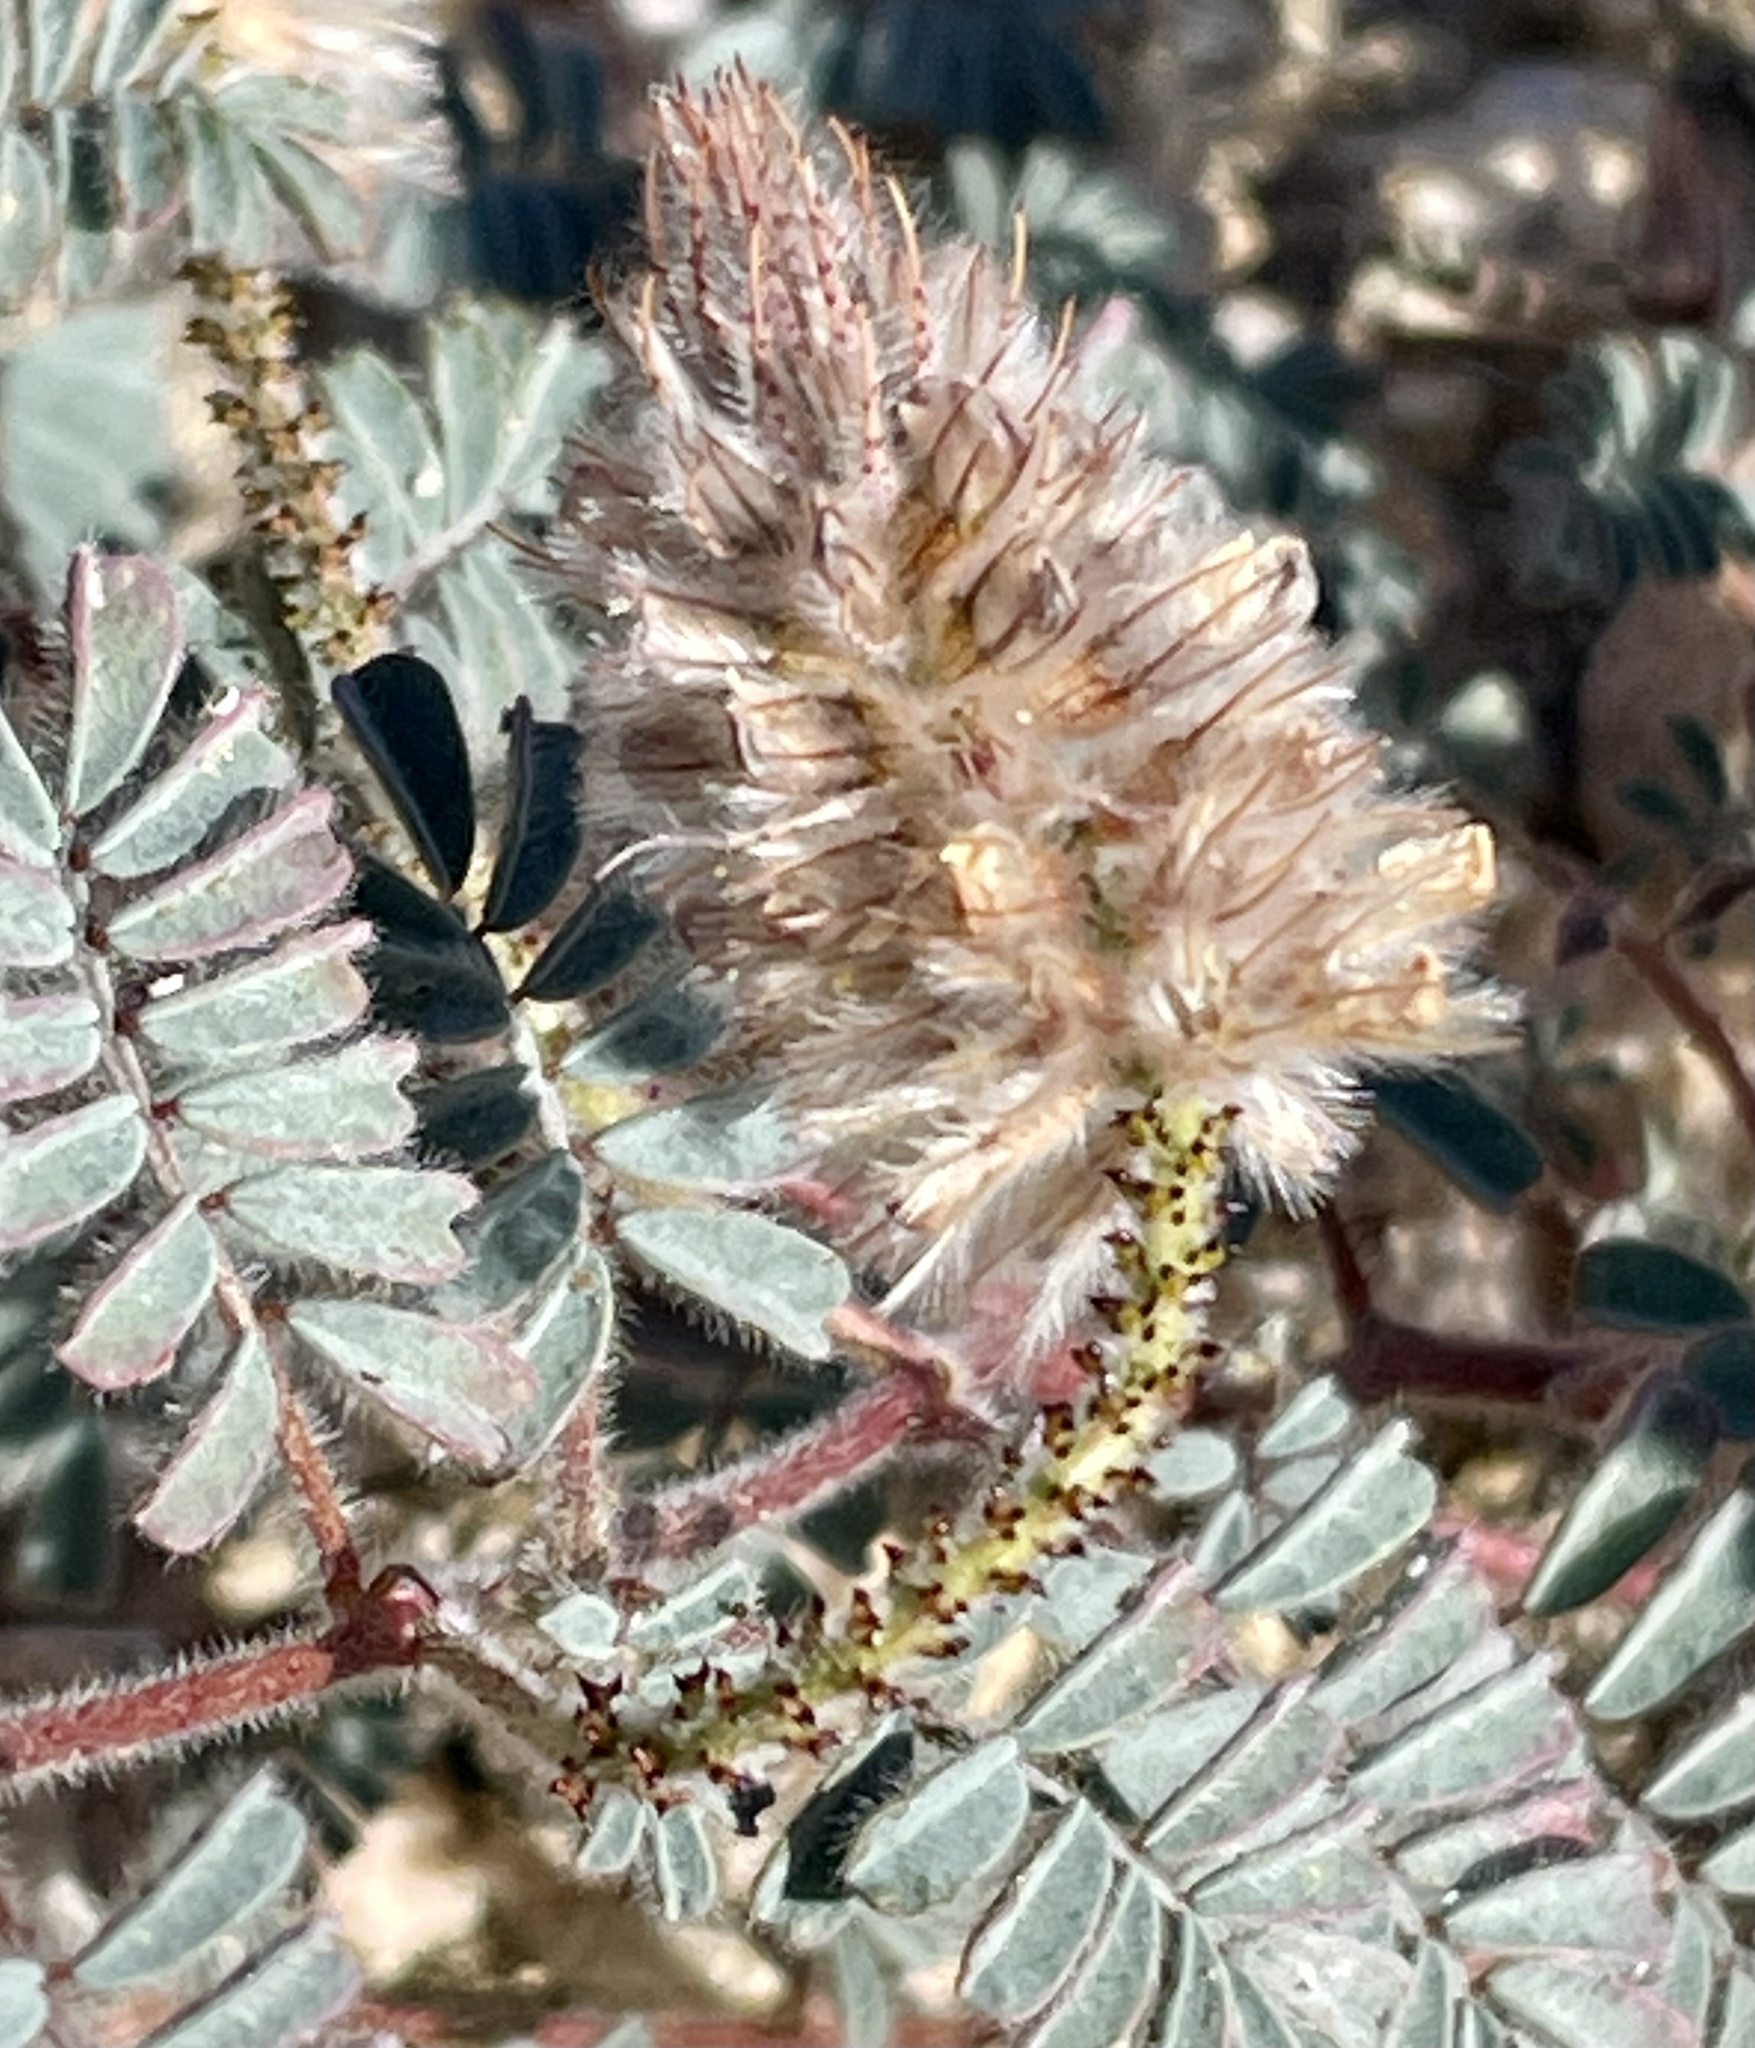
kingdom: Plantae
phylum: Tracheophyta
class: Magnoliopsida
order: Fabales
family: Fabaceae
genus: Dalea
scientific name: Dalea mollis
